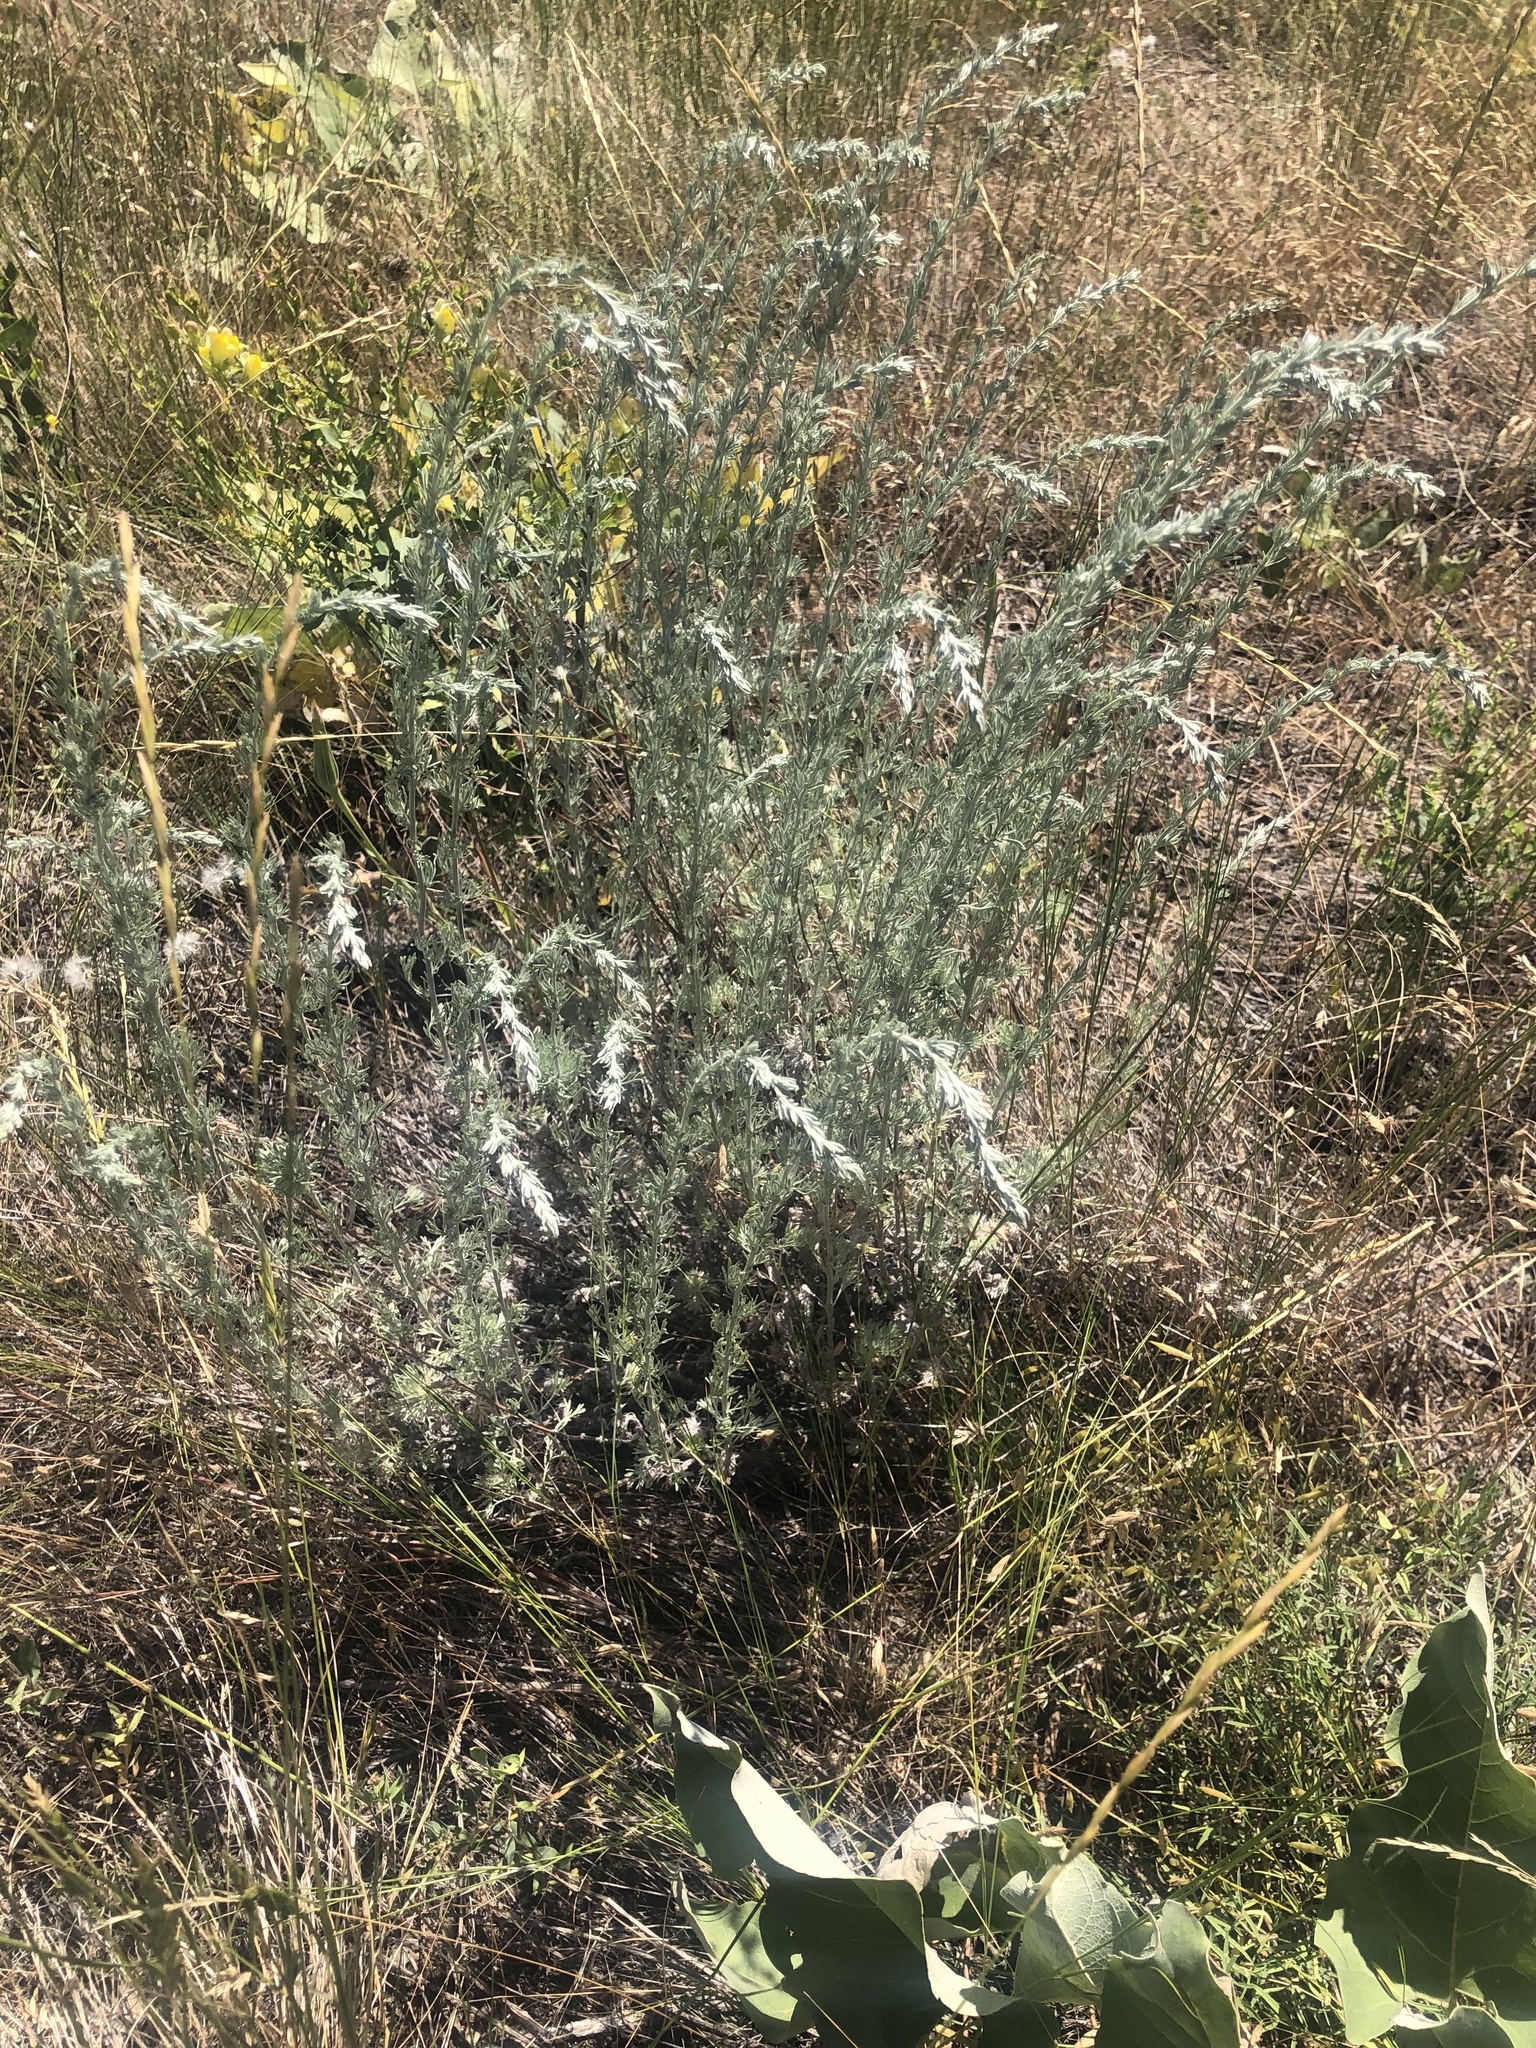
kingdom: Plantae
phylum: Tracheophyta
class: Magnoliopsida
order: Asterales
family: Asteraceae
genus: Artemisia
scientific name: Artemisia frigida
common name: Prairie sagewort
